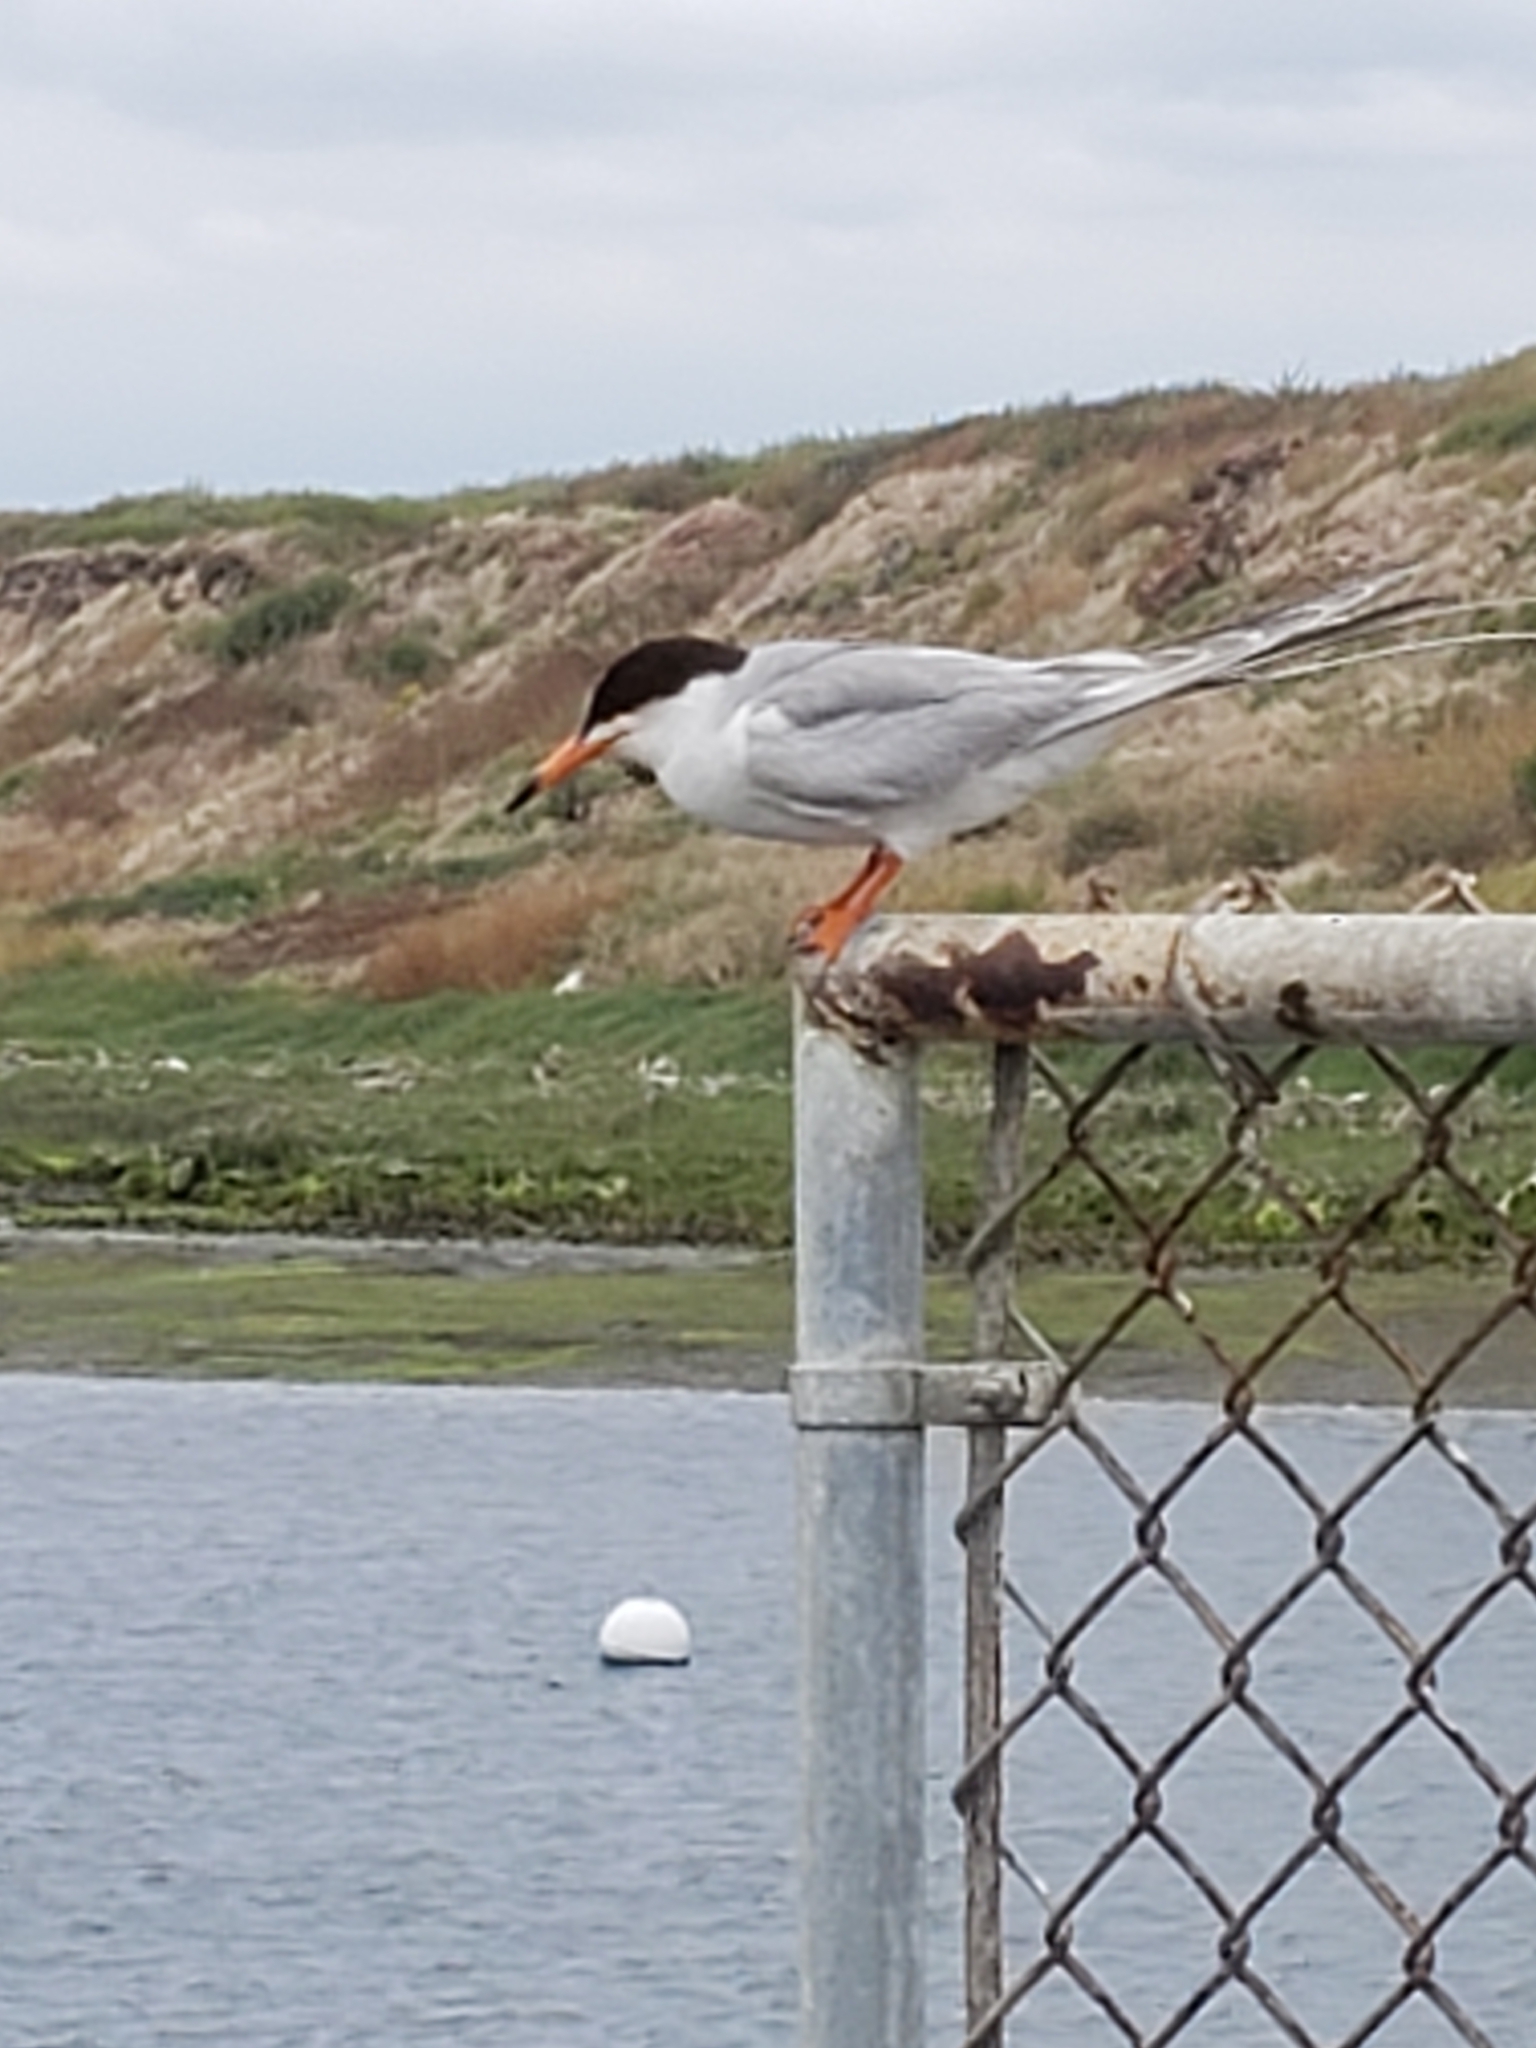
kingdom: Animalia
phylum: Chordata
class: Aves
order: Charadriiformes
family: Laridae
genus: Sterna
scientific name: Sterna forsteri
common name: Forster's tern
